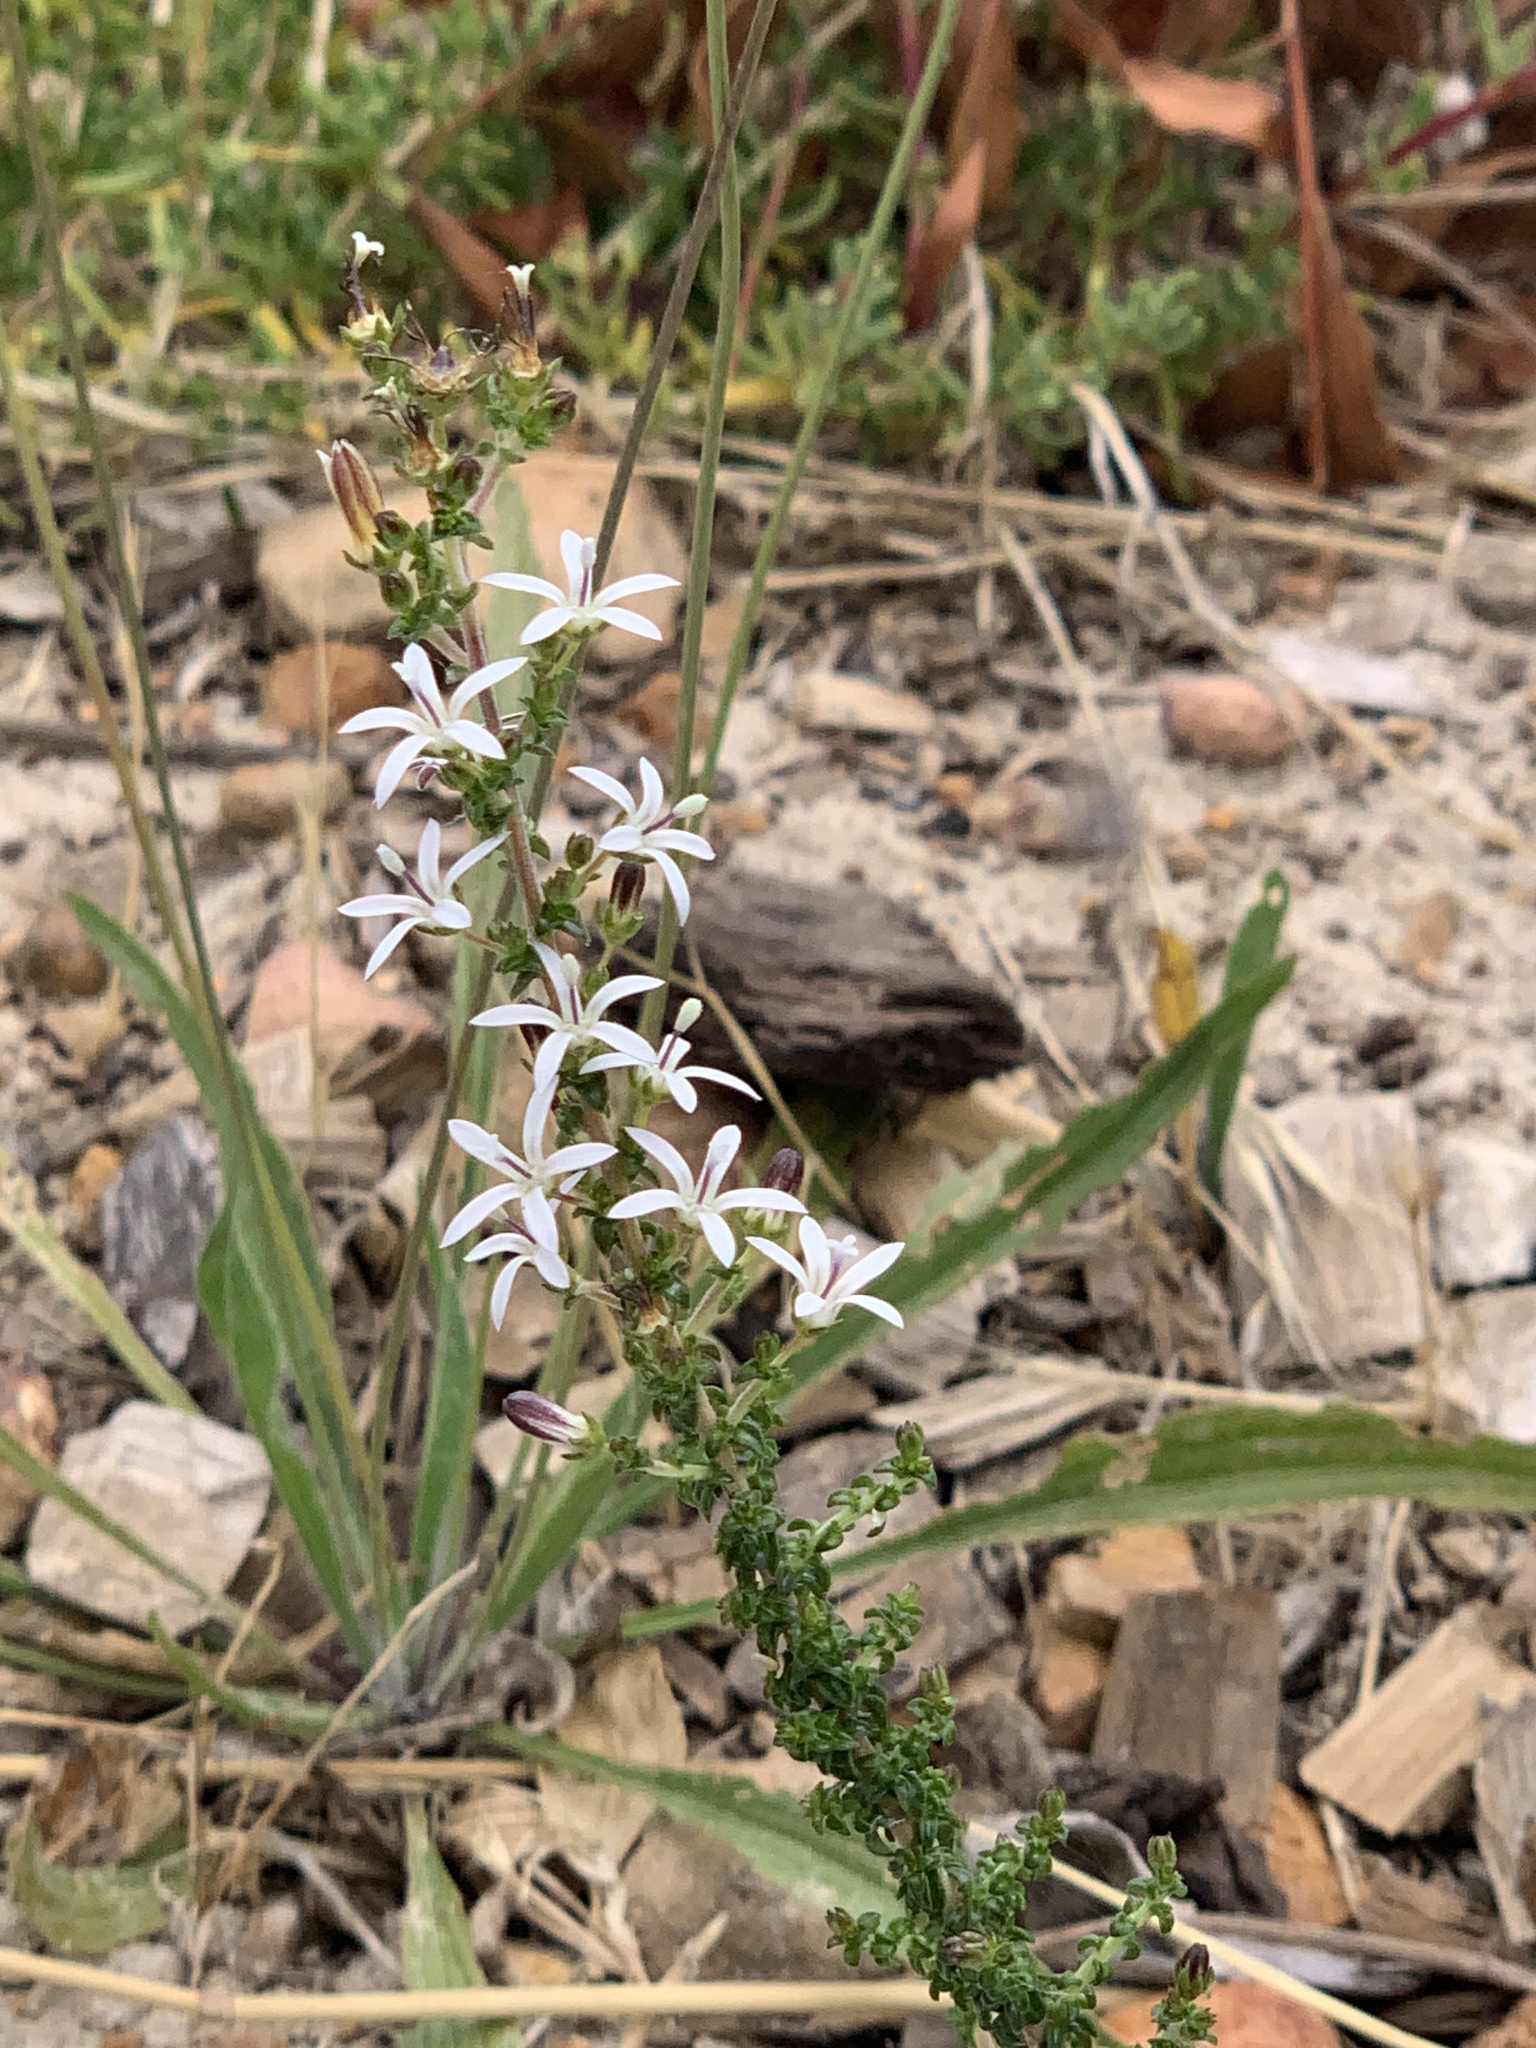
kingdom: Plantae
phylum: Tracheophyta
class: Magnoliopsida
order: Asterales
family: Campanulaceae
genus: Wahlenbergia
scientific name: Wahlenbergia tenella
